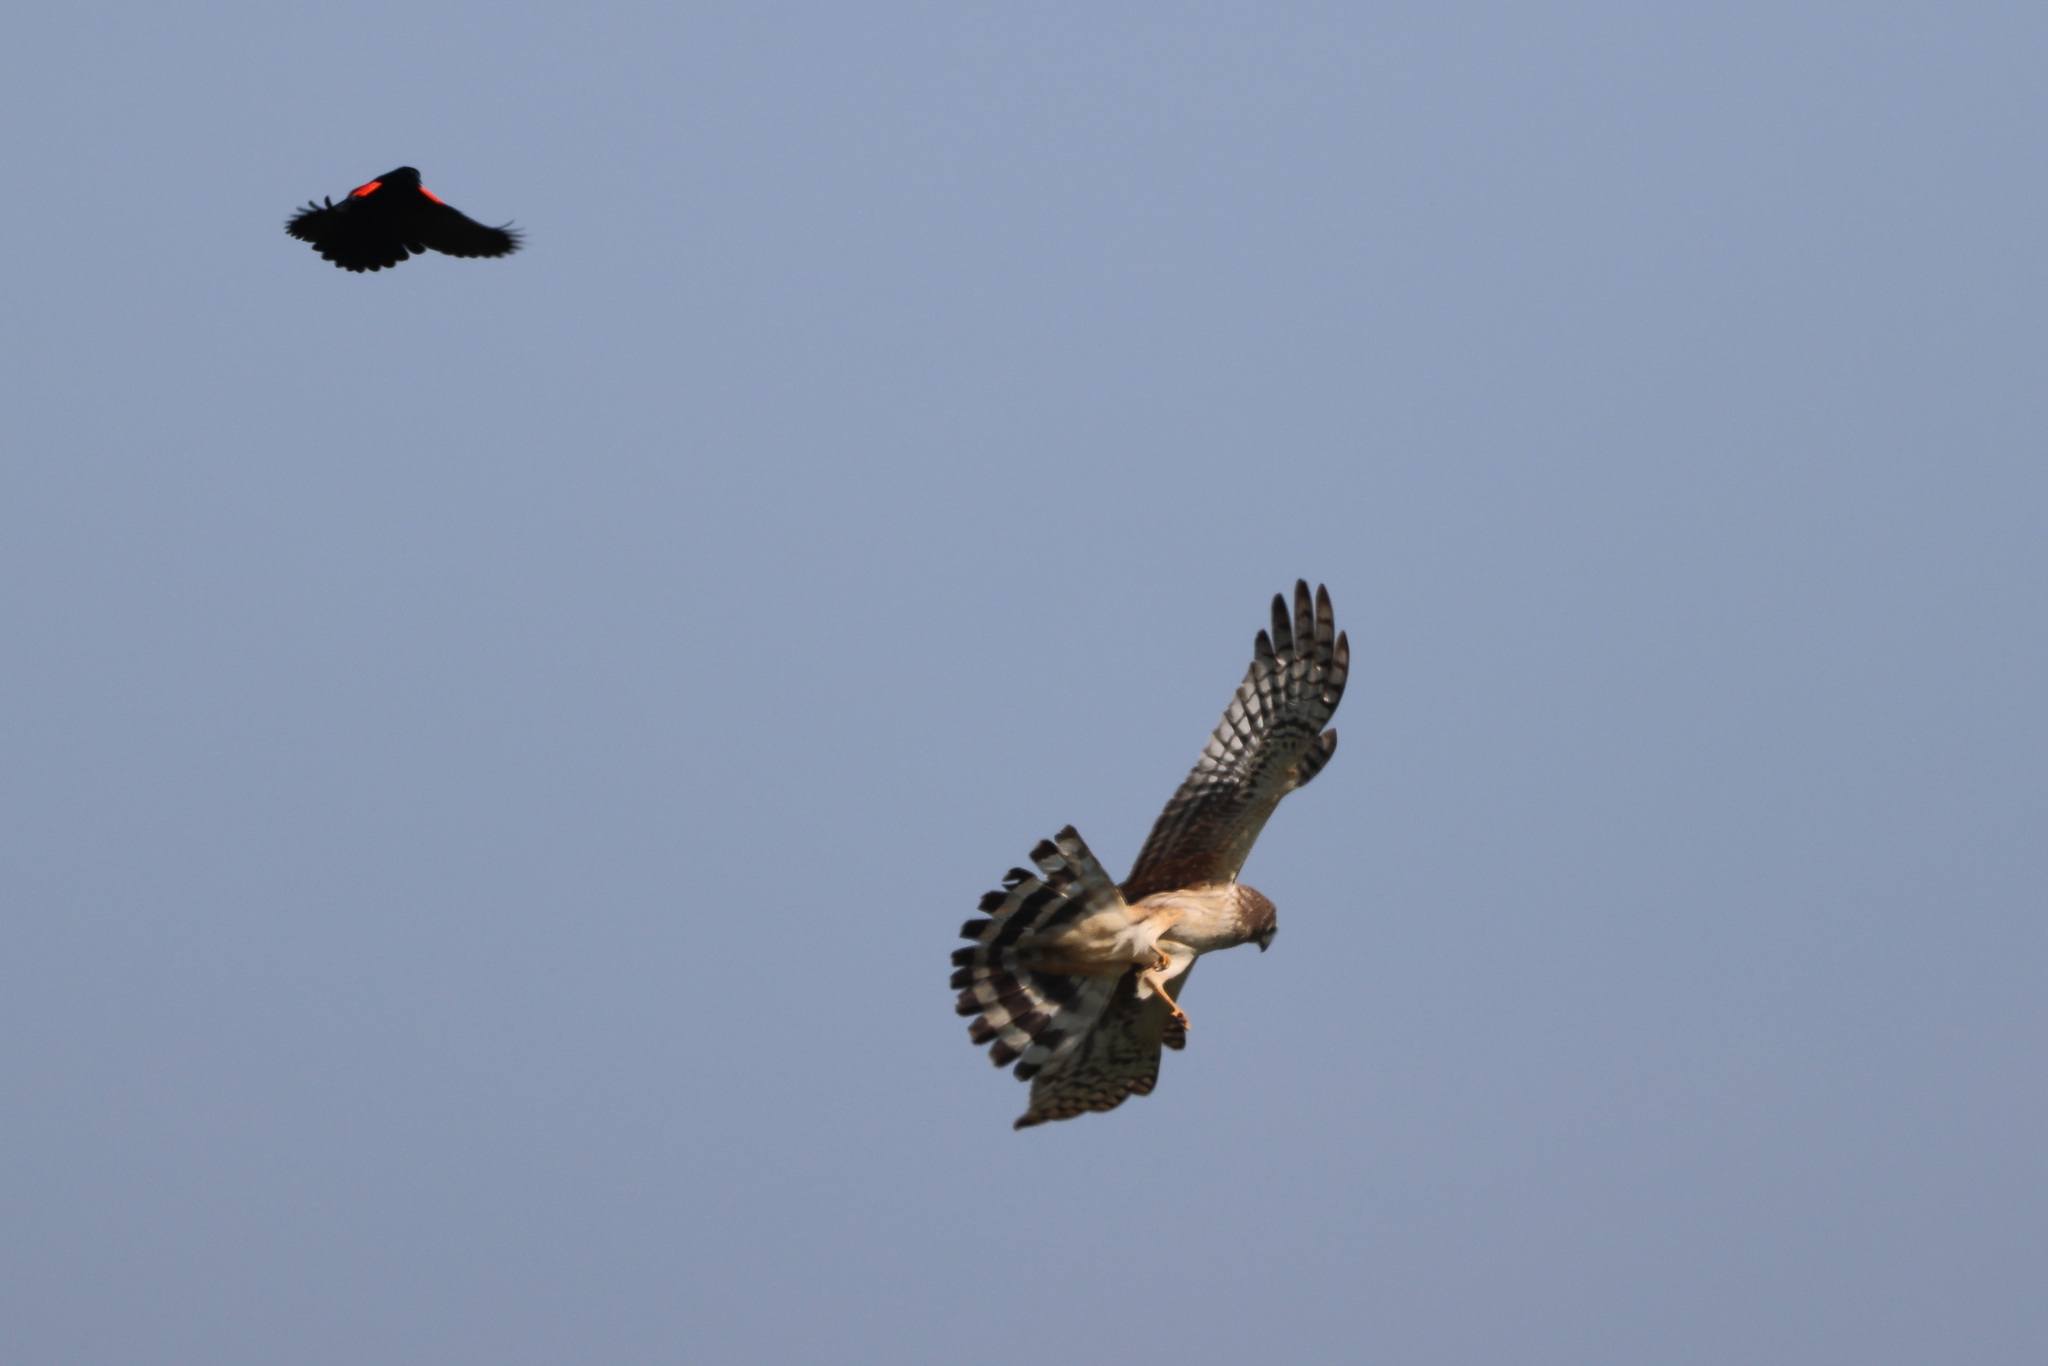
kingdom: Animalia
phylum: Chordata
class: Aves
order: Accipitriformes
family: Accipitridae
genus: Circus
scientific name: Circus cyaneus
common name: Hen harrier
